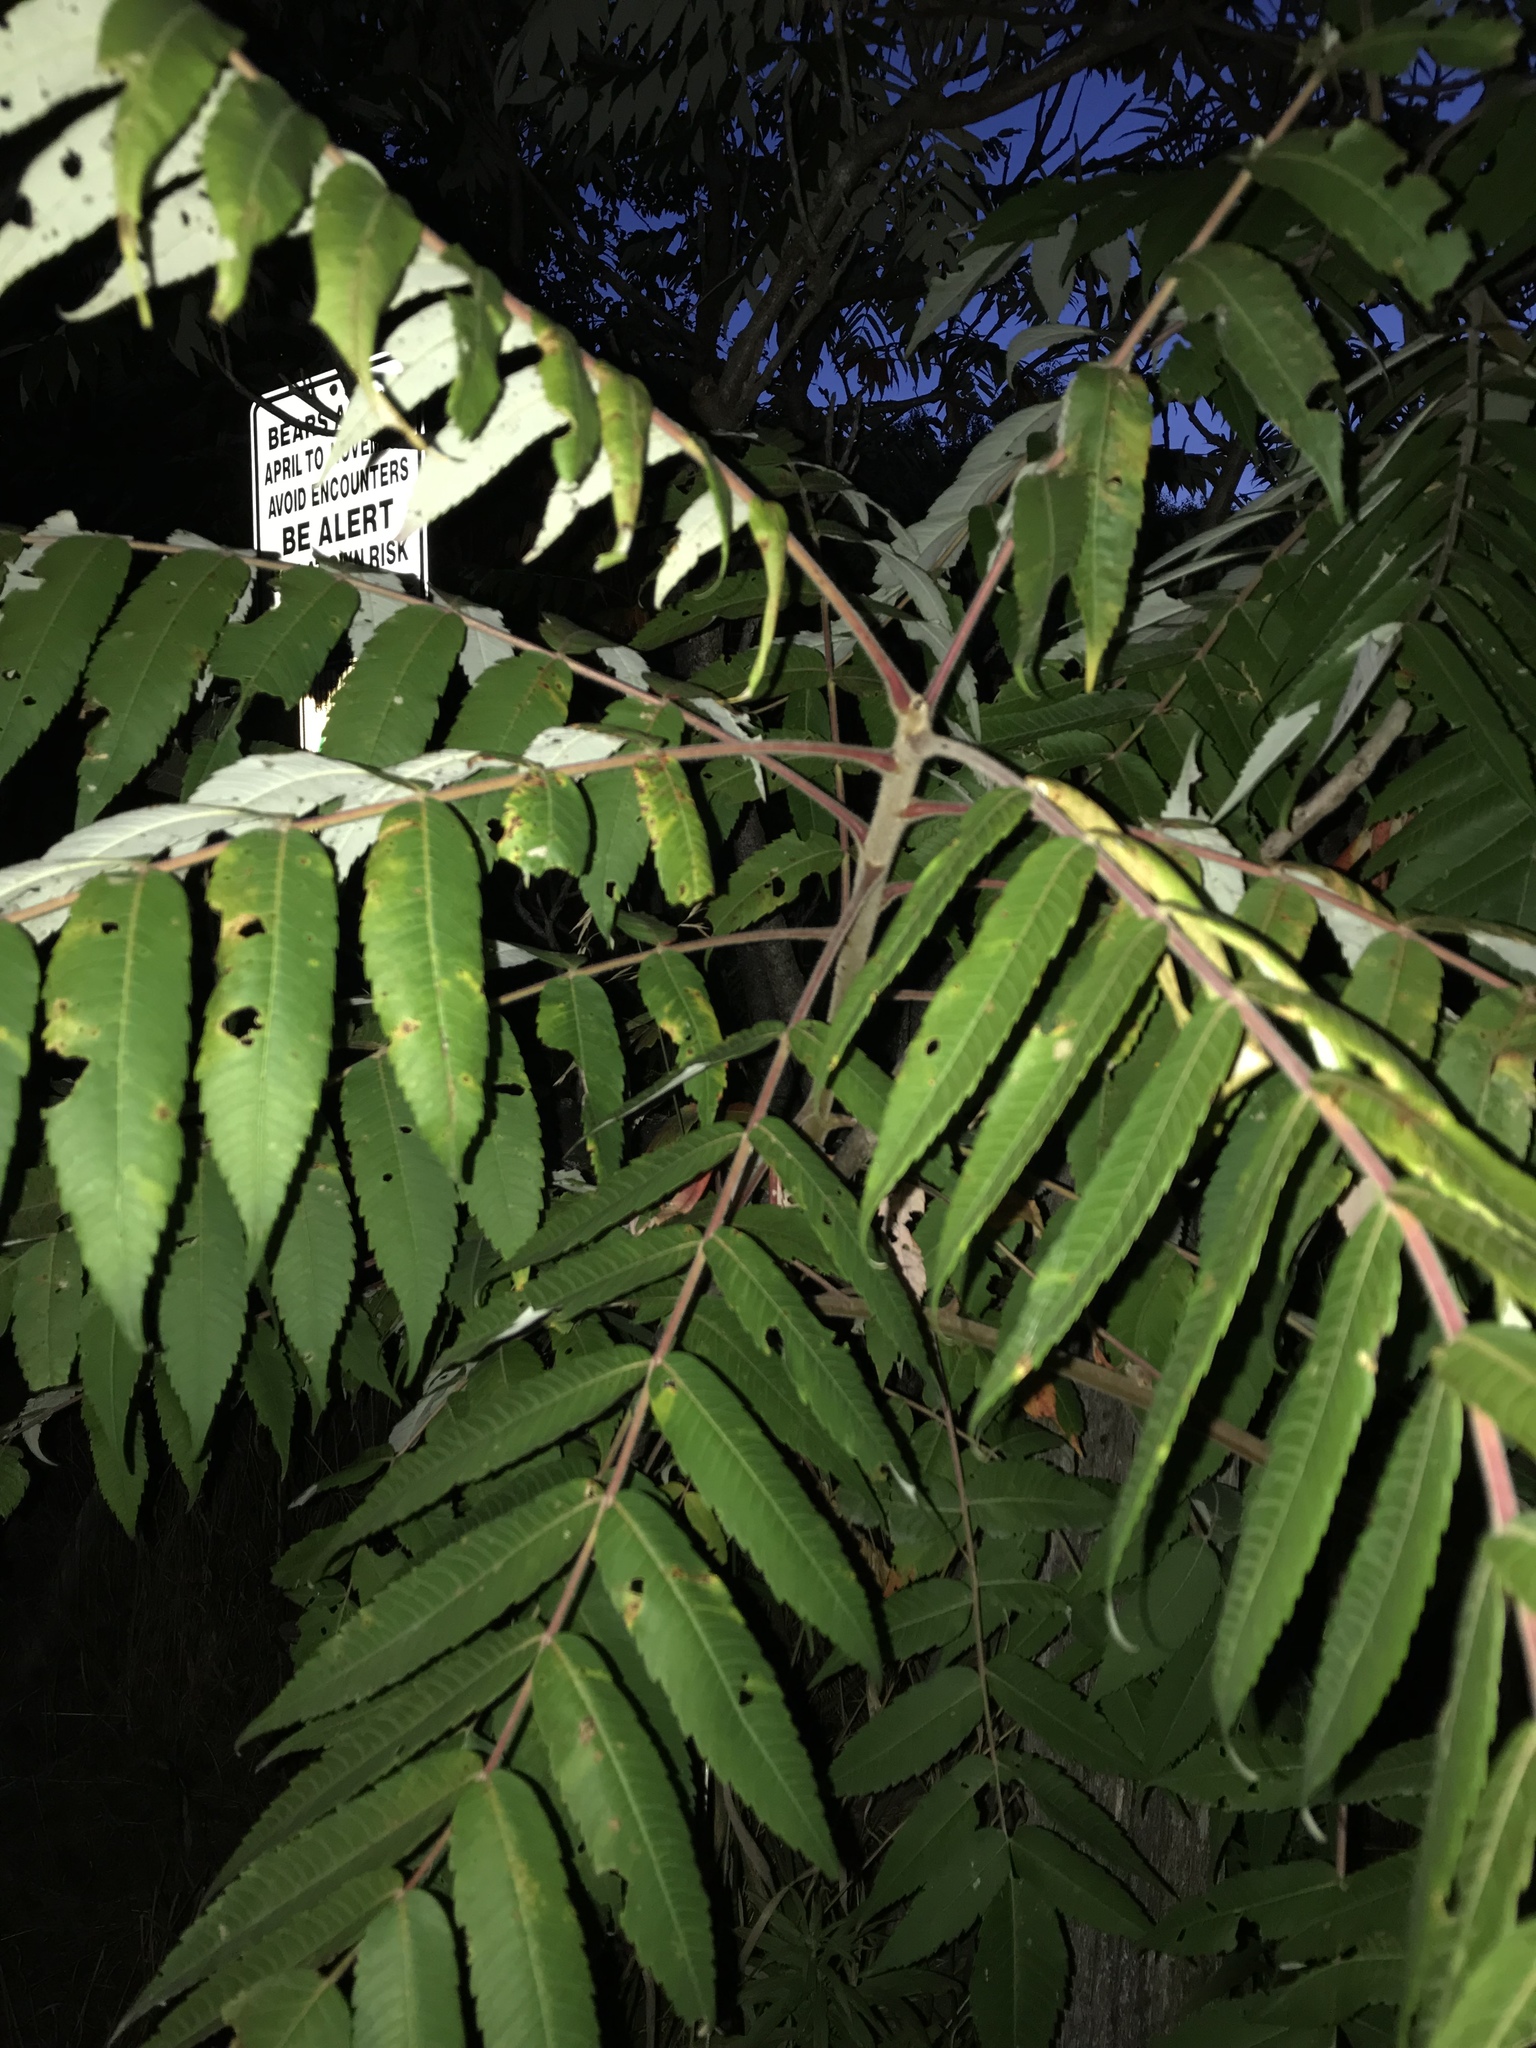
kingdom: Plantae
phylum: Tracheophyta
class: Magnoliopsida
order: Sapindales
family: Anacardiaceae
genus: Rhus
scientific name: Rhus typhina
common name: Staghorn sumac
